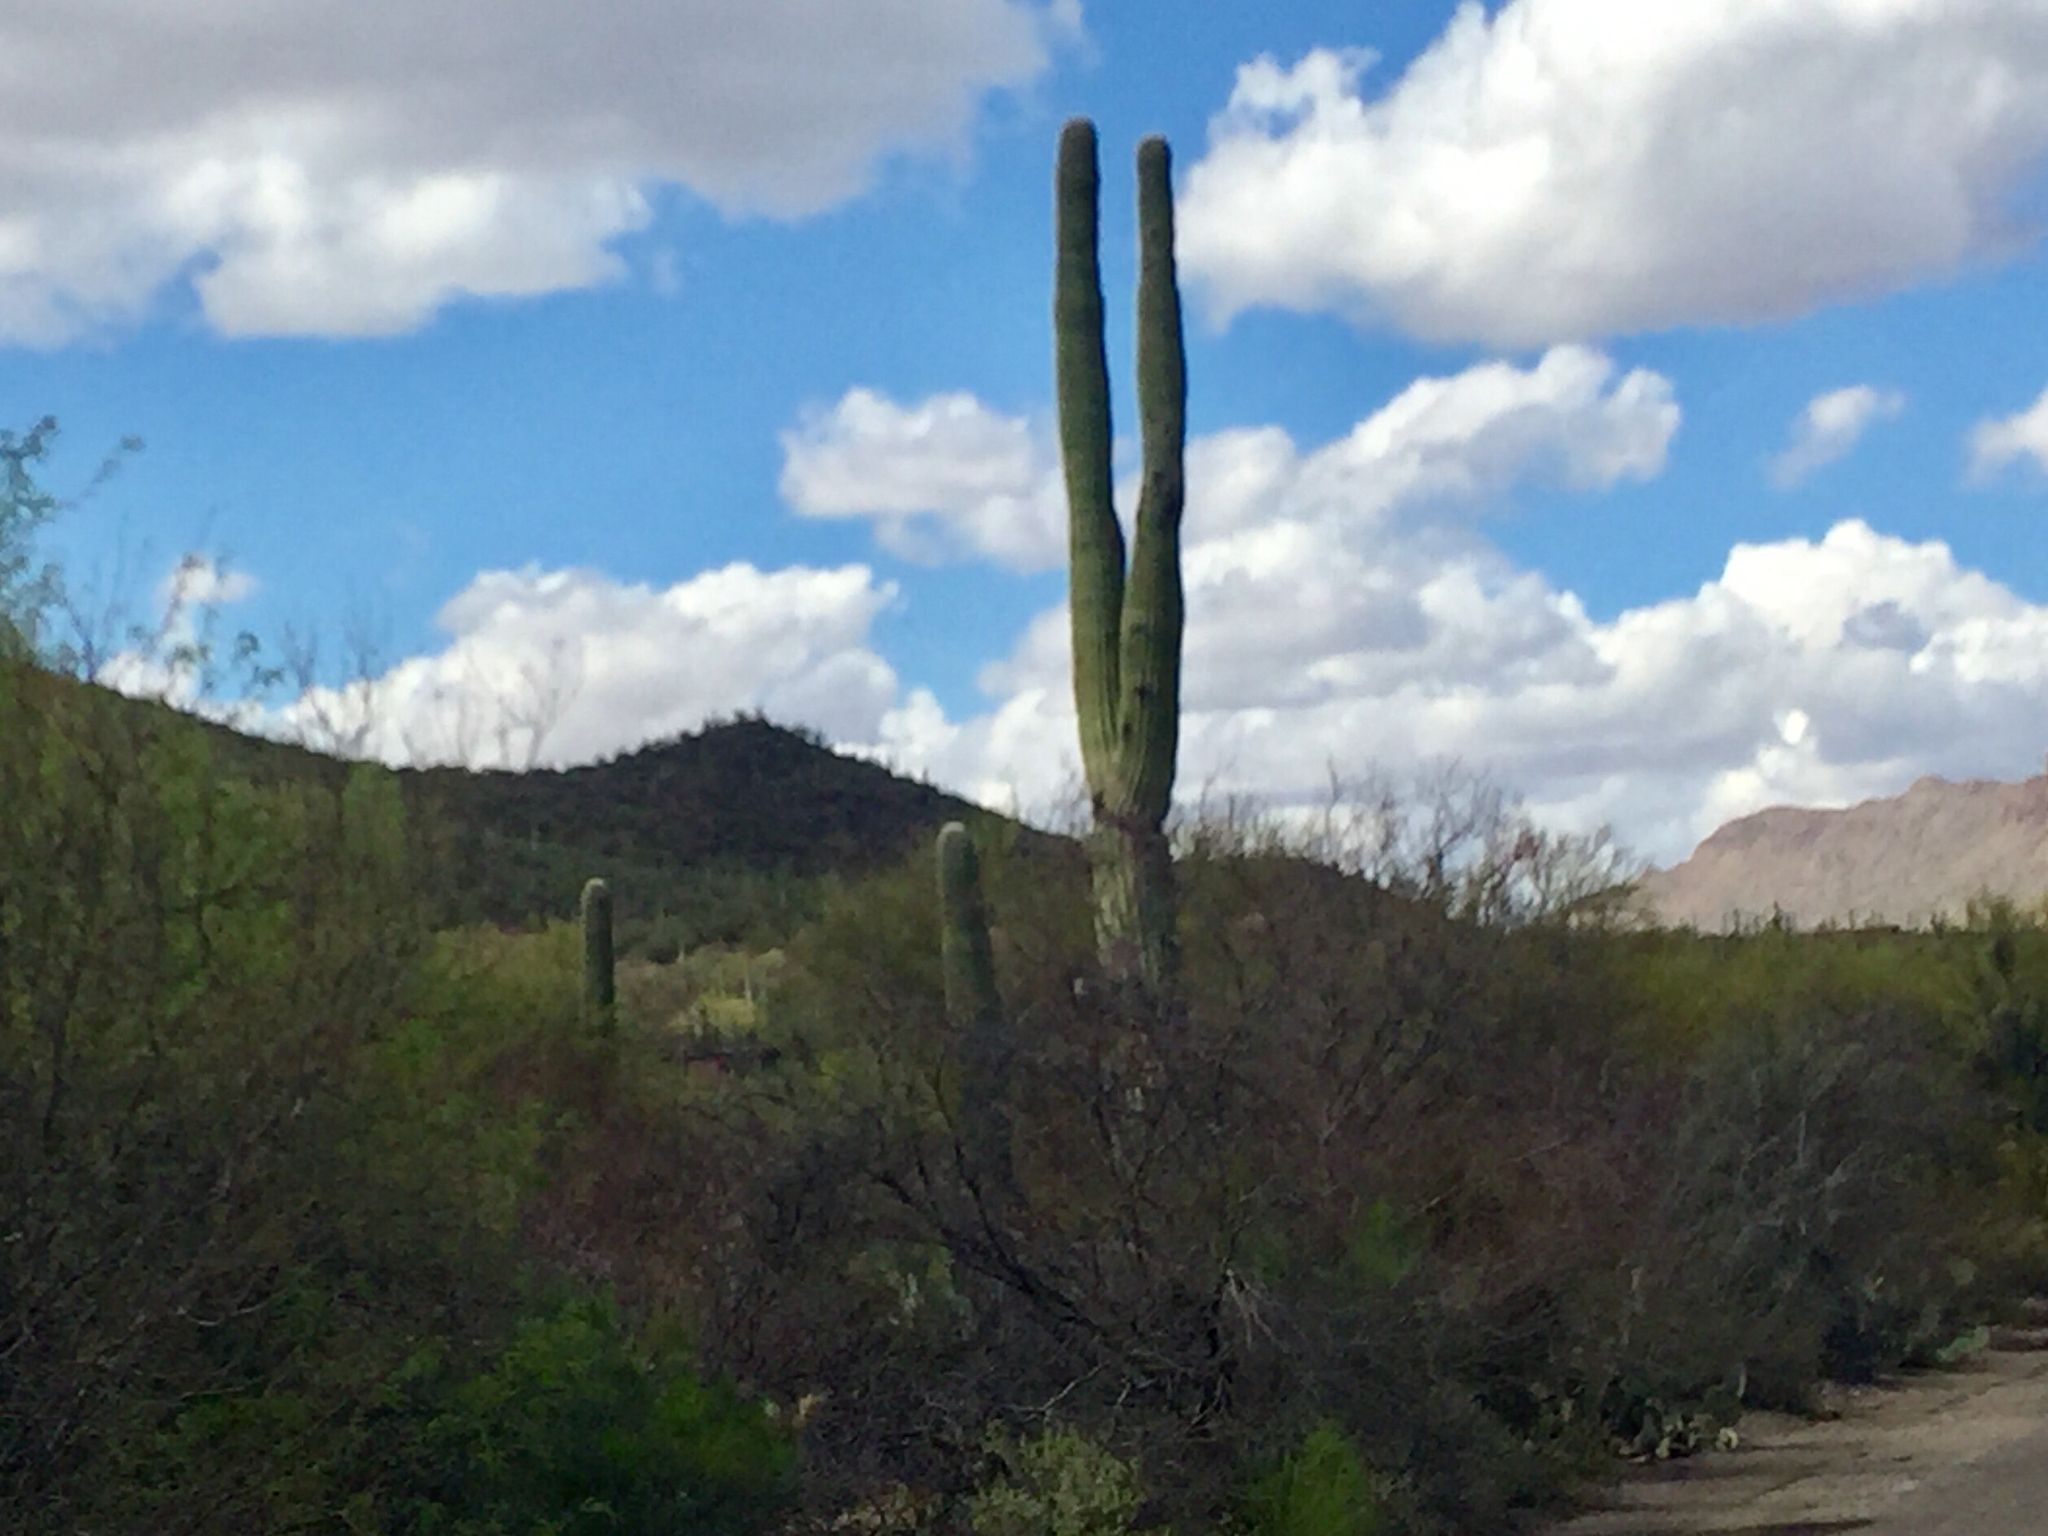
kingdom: Plantae
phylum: Tracheophyta
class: Magnoliopsida
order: Caryophyllales
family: Cactaceae
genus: Carnegiea
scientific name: Carnegiea gigantea
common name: Saguaro
